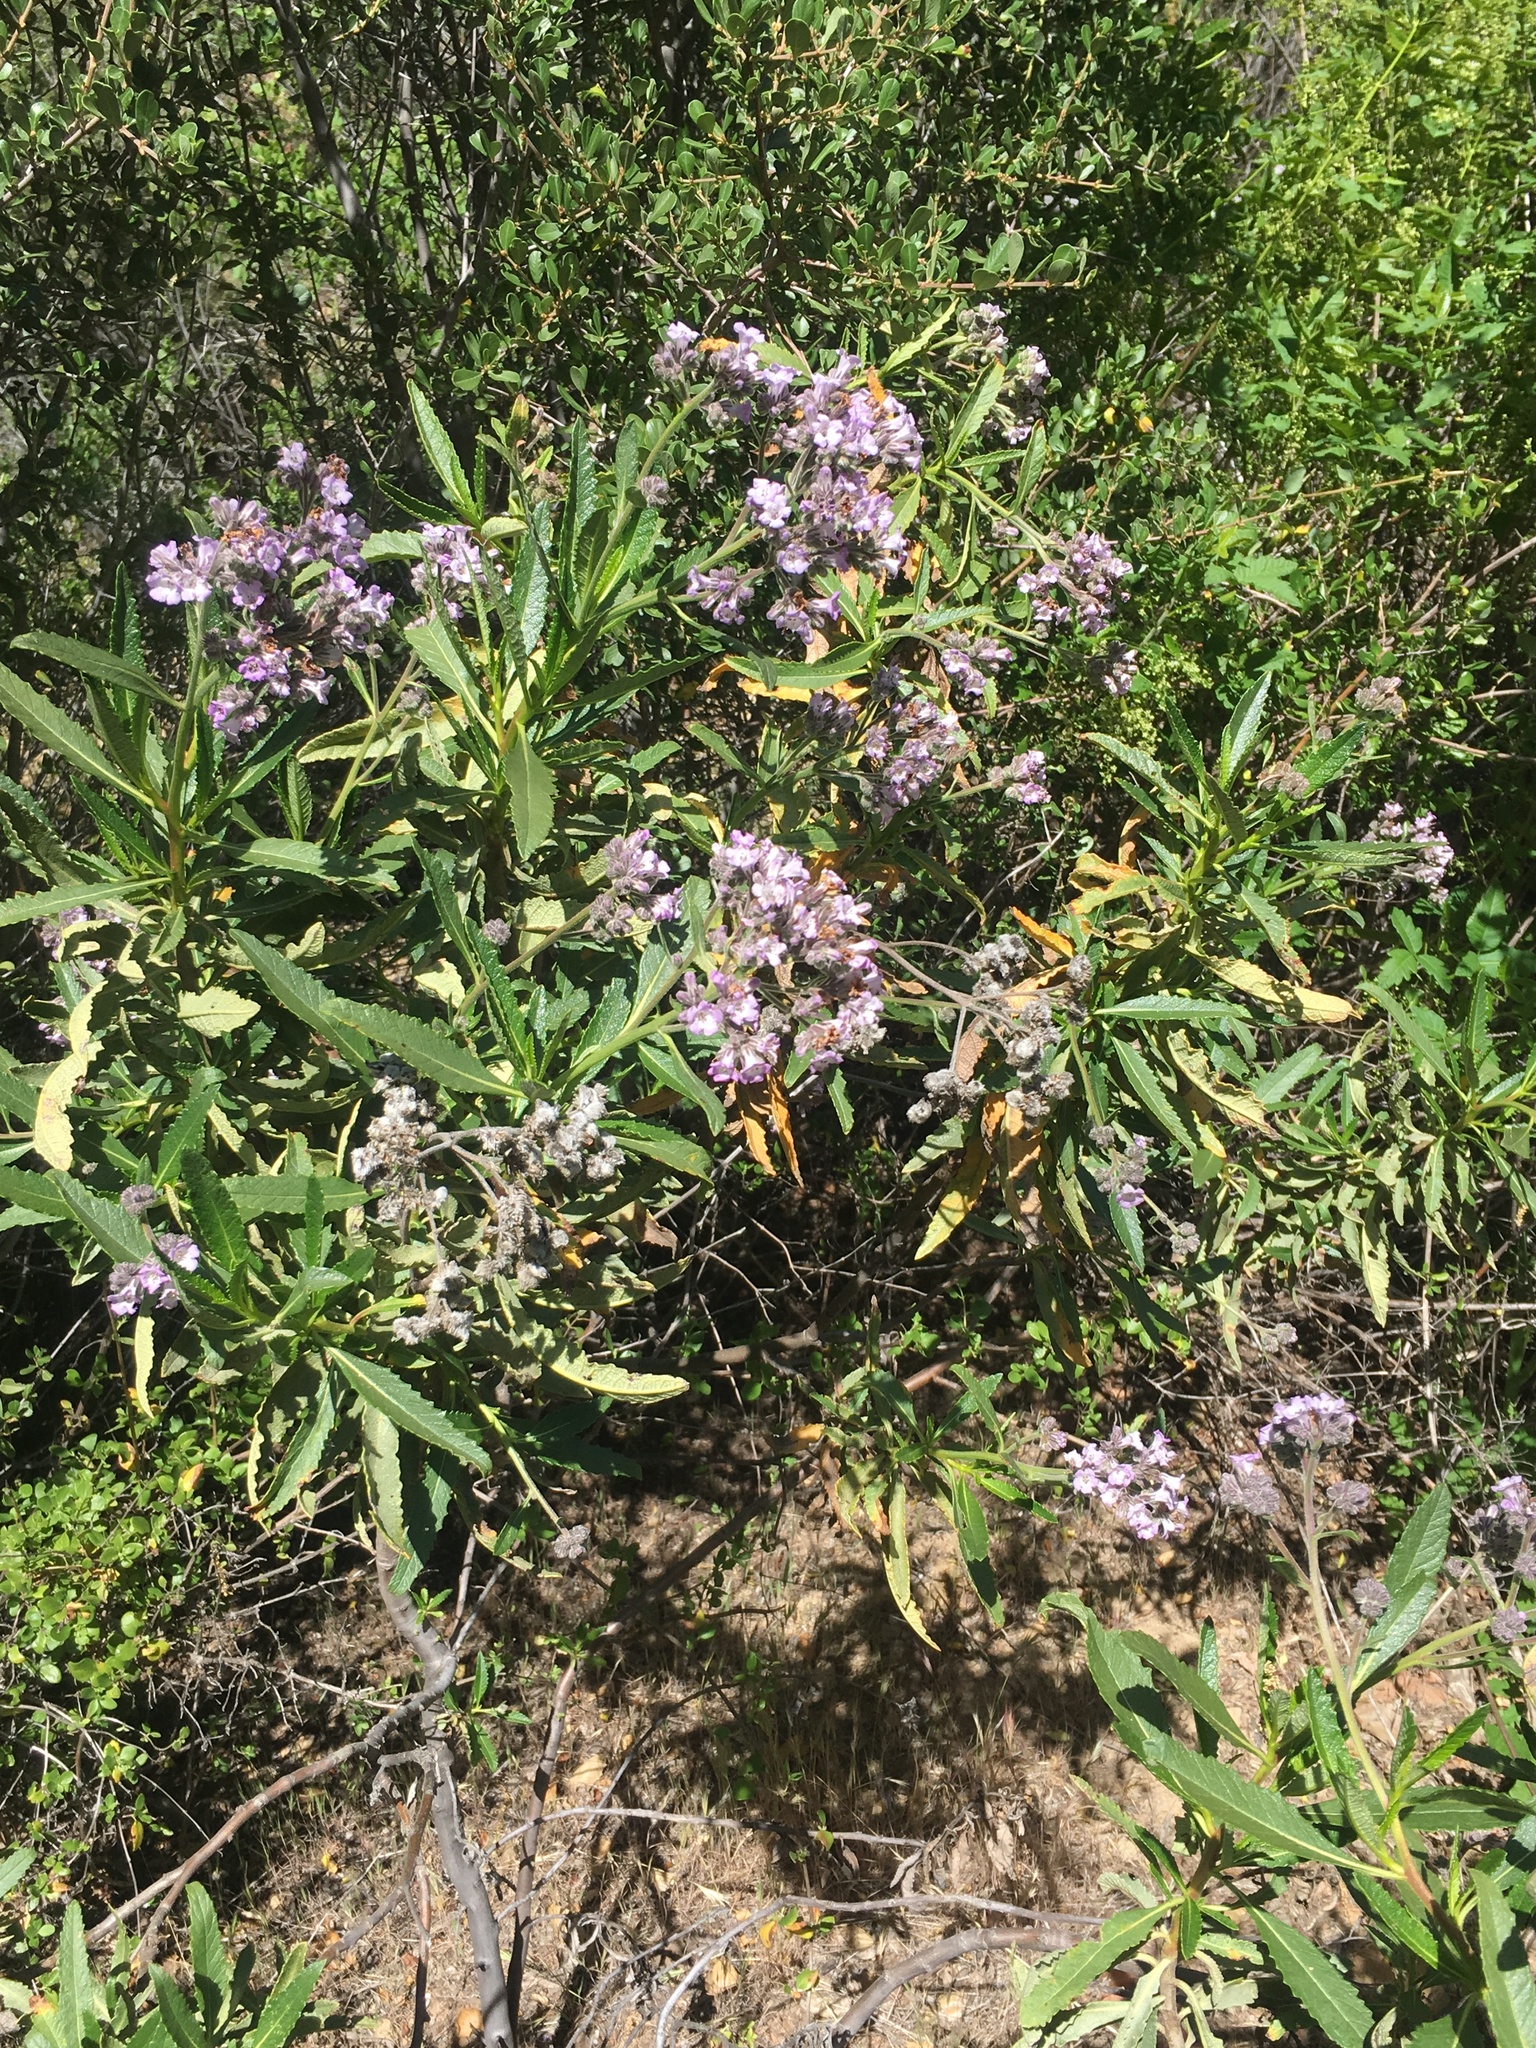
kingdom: Plantae
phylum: Tracheophyta
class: Magnoliopsida
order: Boraginales
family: Namaceae
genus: Eriodictyon
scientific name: Eriodictyon crassifolium
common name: Thick-leaf yerba-santa
